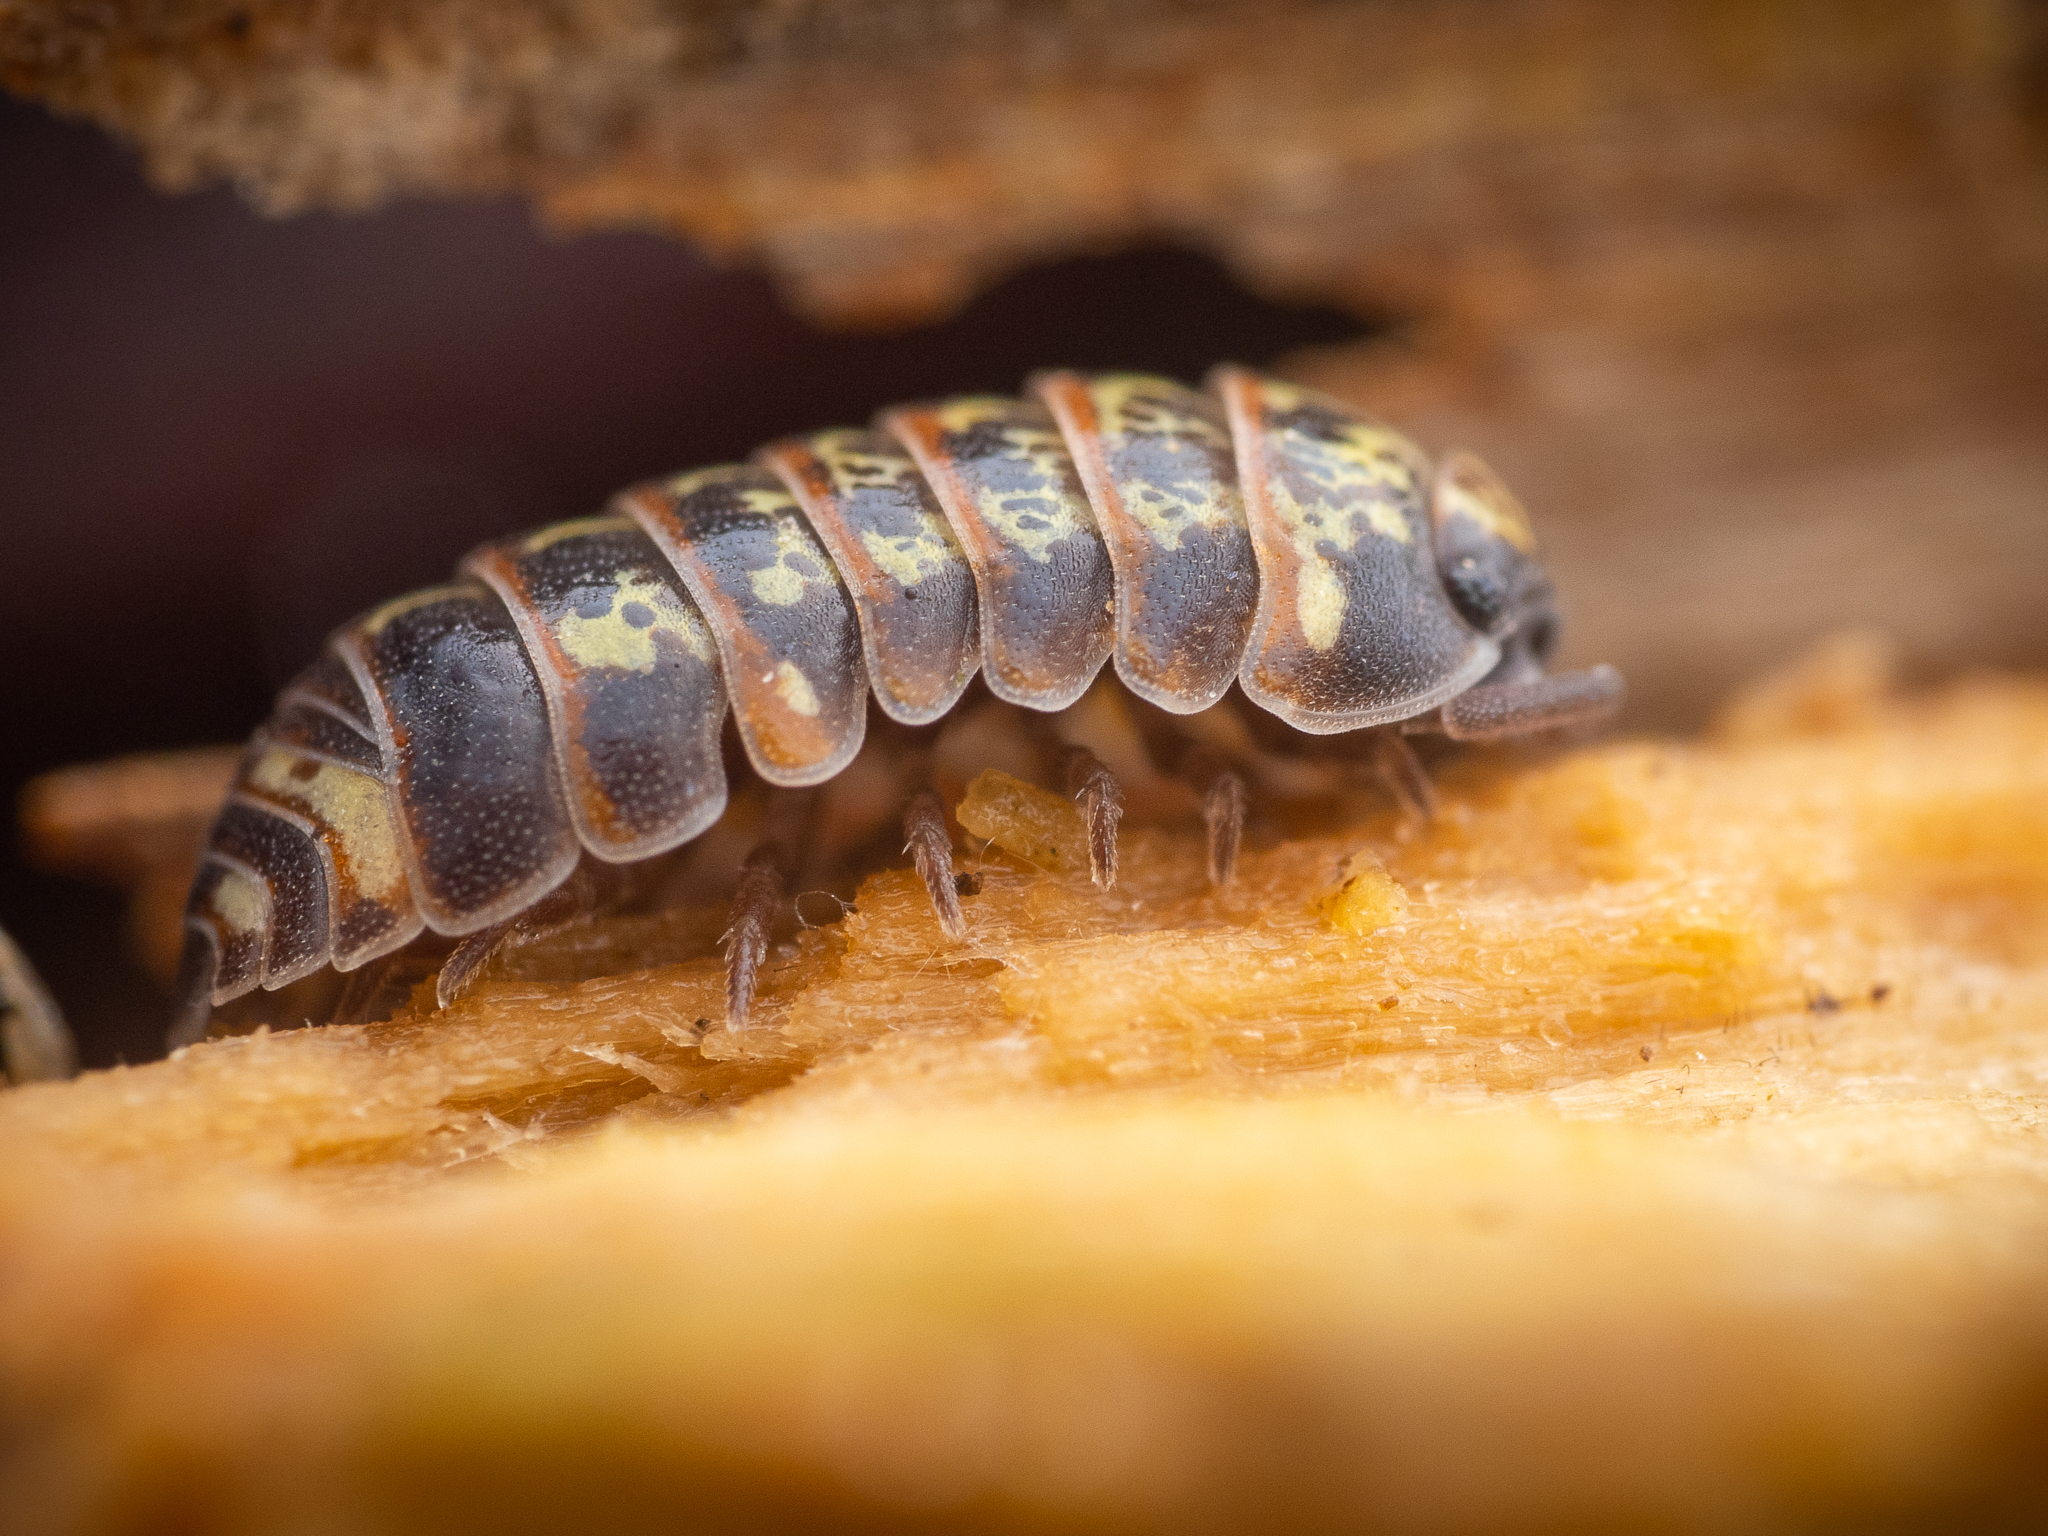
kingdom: Animalia
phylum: Arthropoda
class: Malacostraca
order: Isopoda
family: Armadillidiidae
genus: Armadillidium
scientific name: Armadillidium pulchellum
